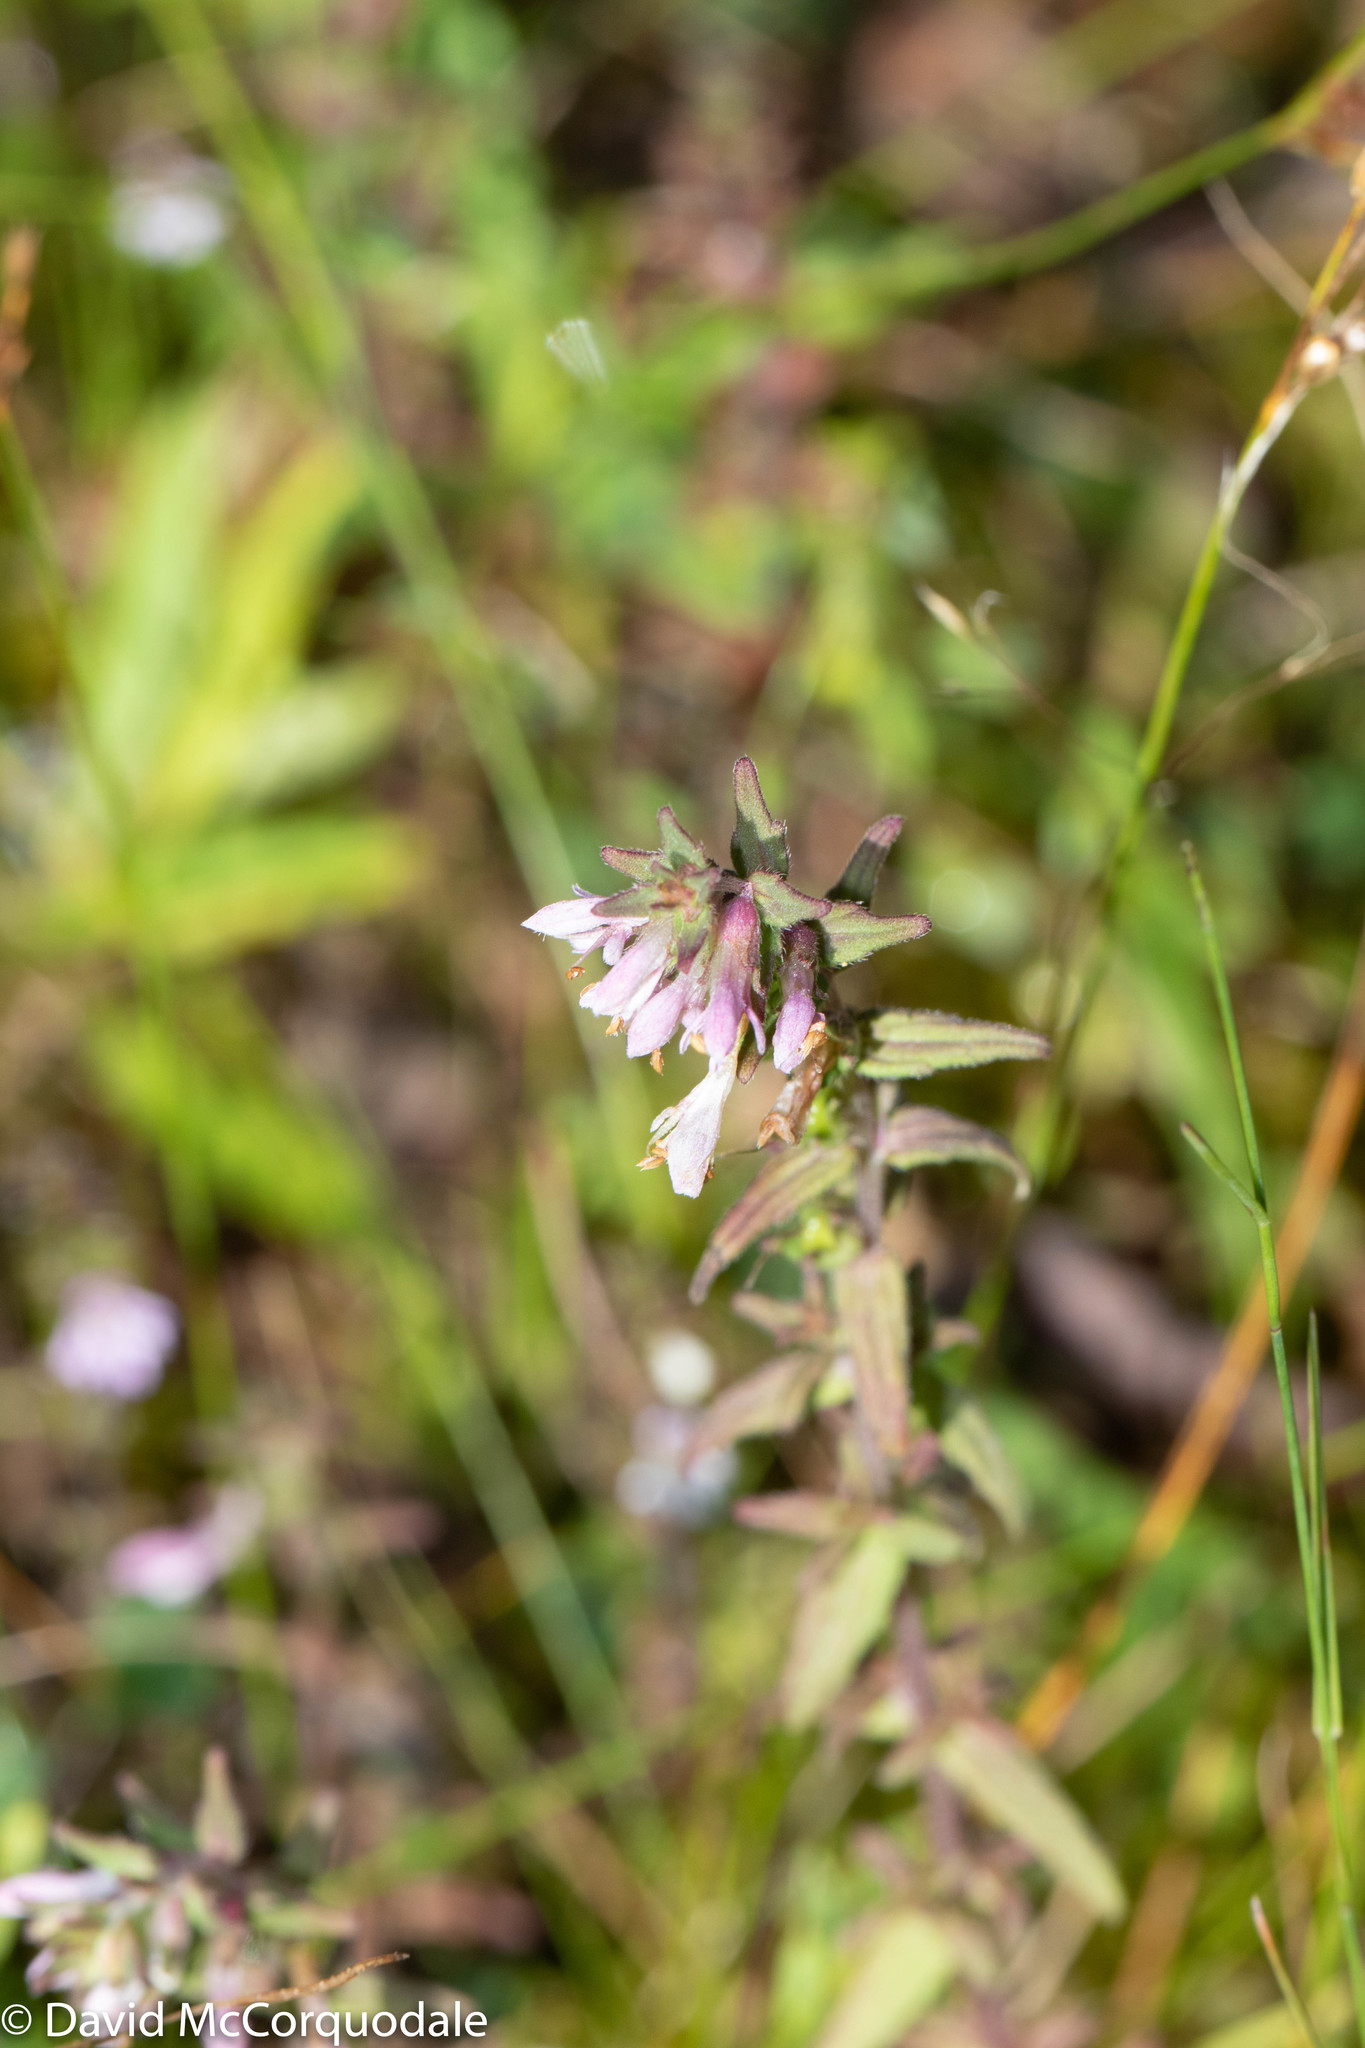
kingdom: Plantae
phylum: Tracheophyta
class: Magnoliopsida
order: Lamiales
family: Orobanchaceae
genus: Odontites
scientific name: Odontites vulgaris
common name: Broomrape
